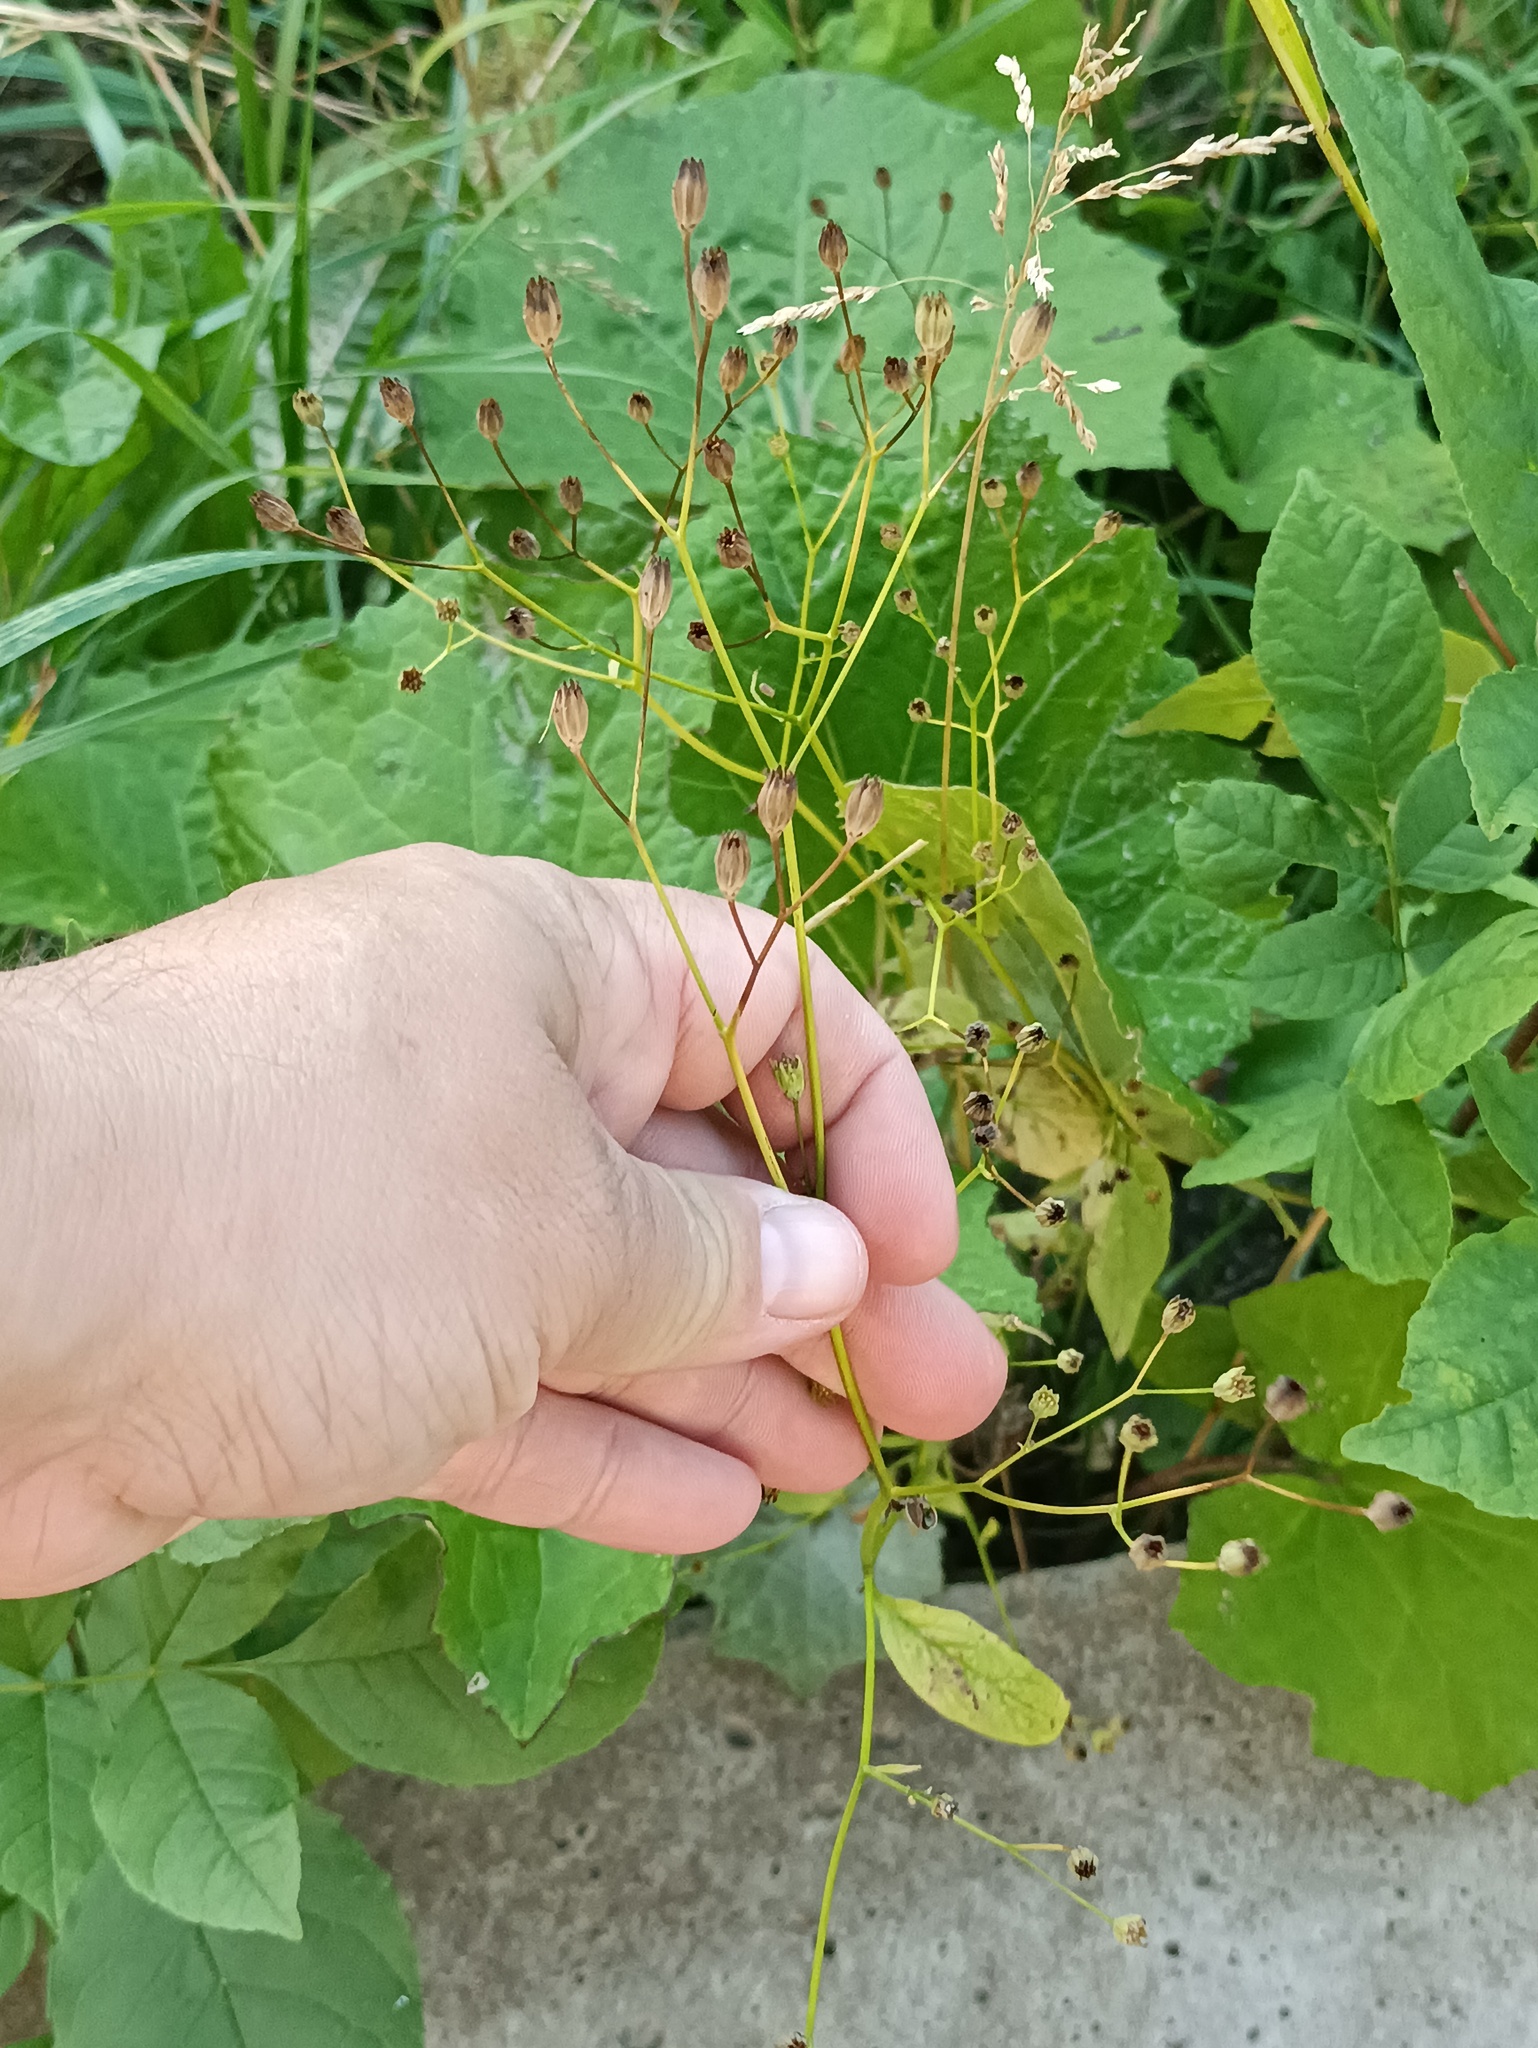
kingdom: Plantae
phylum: Tracheophyta
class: Magnoliopsida
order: Asterales
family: Asteraceae
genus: Lapsana
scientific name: Lapsana communis
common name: Nipplewort
